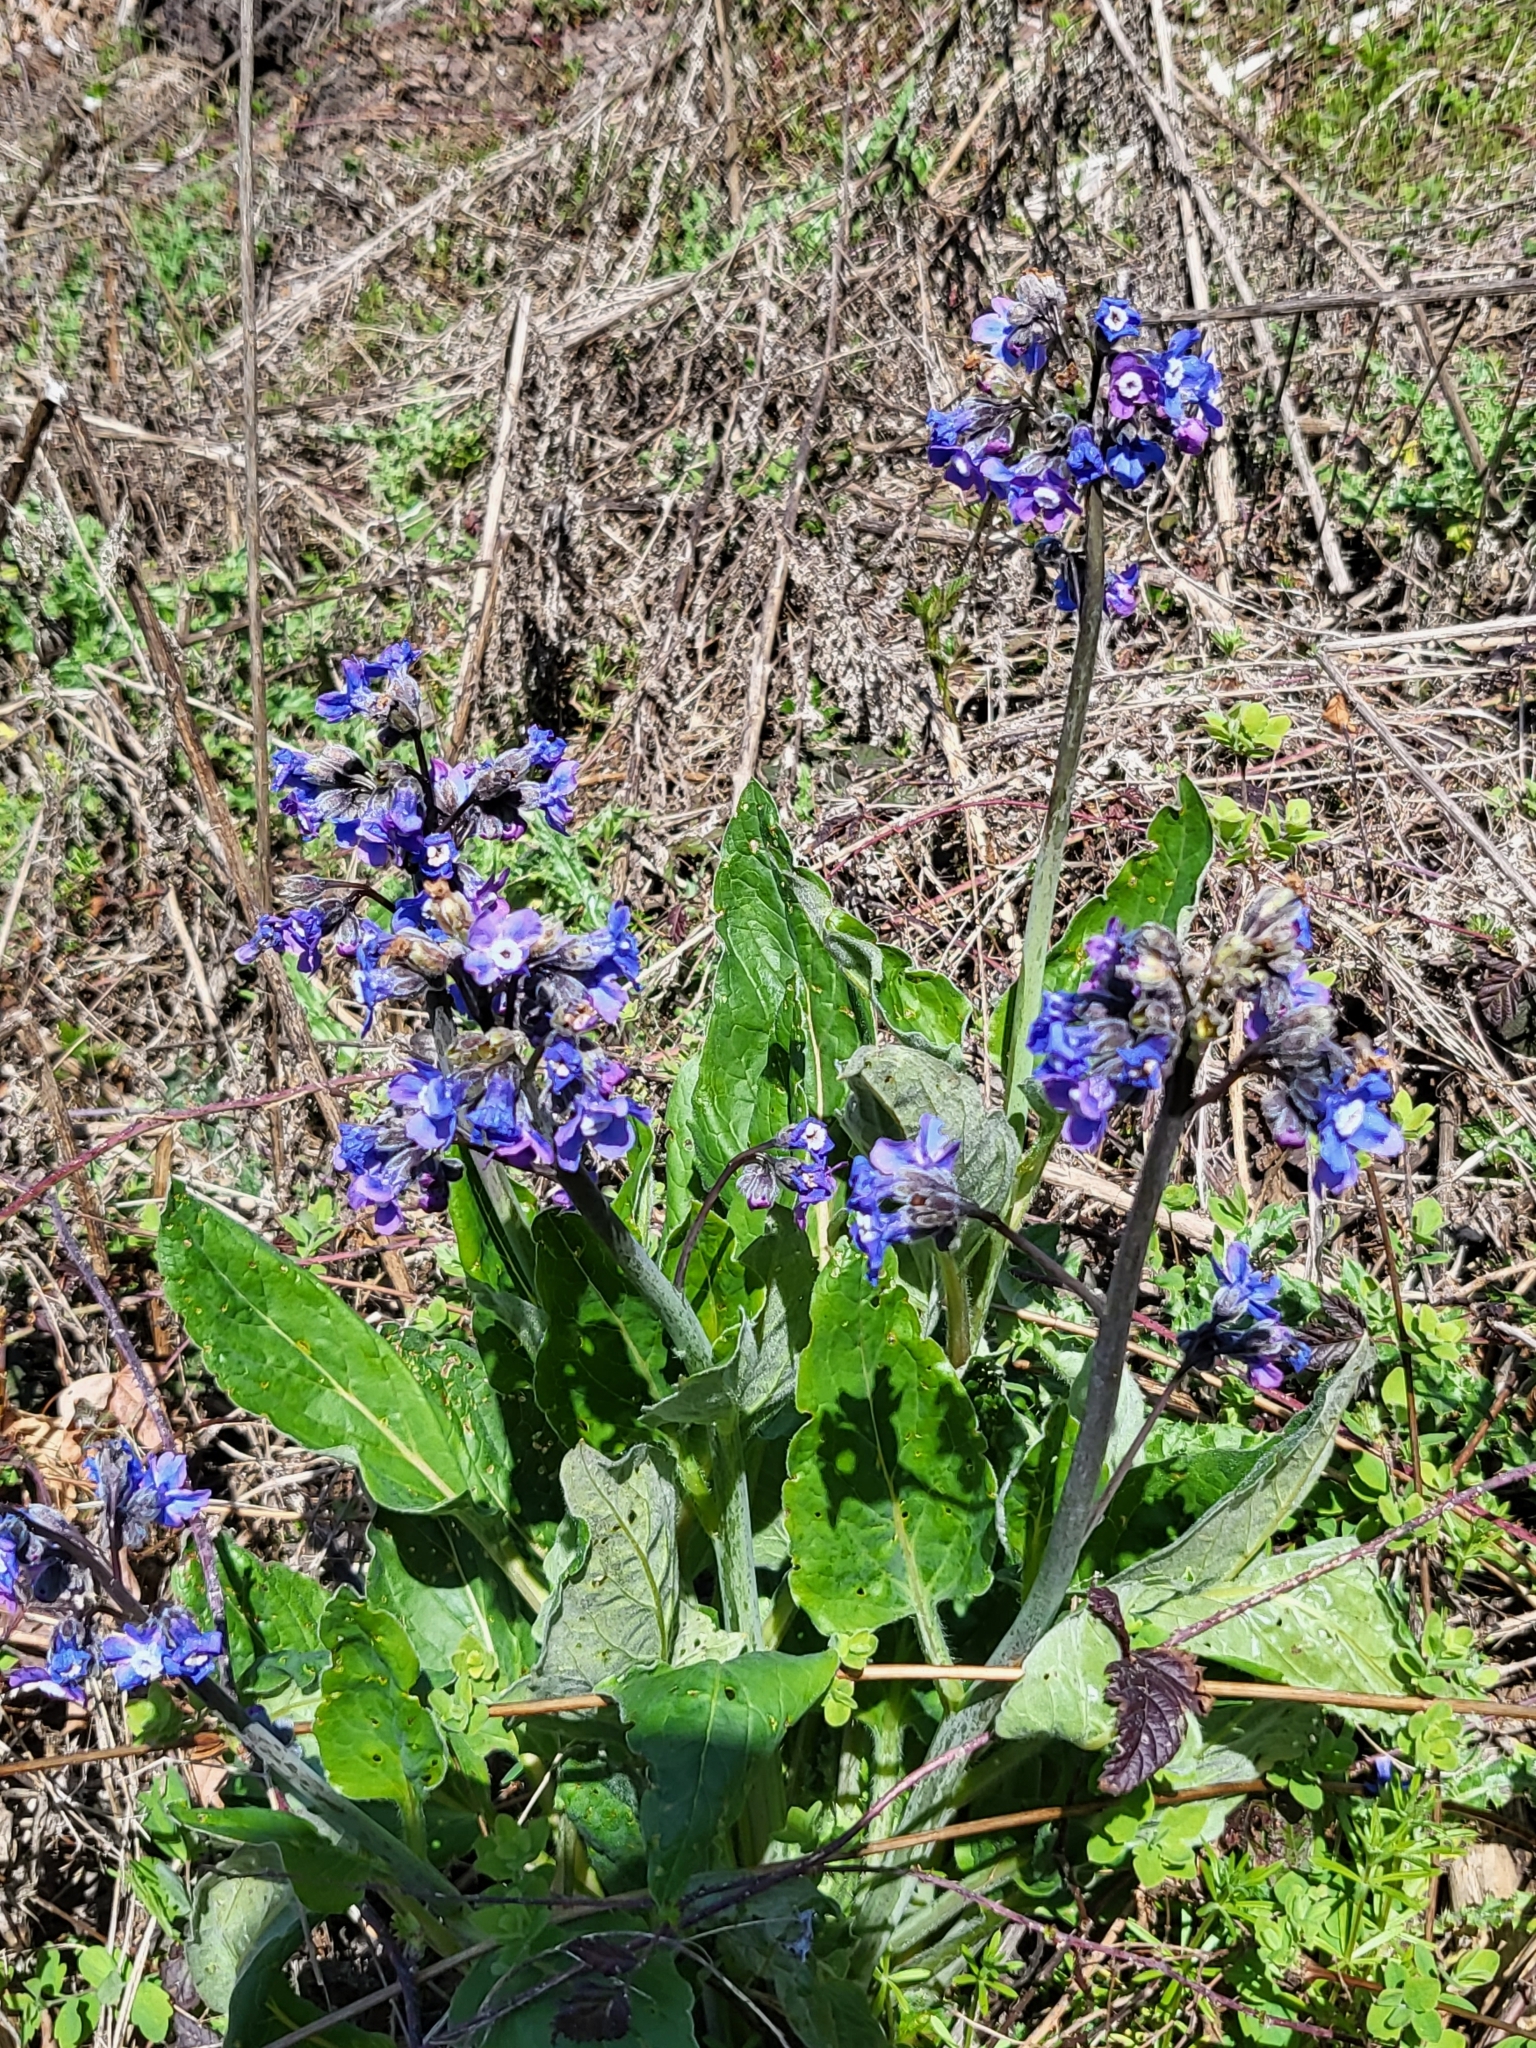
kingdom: Plantae
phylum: Tracheophyta
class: Magnoliopsida
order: Boraginales
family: Boraginaceae
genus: Adelinia
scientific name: Adelinia grande
